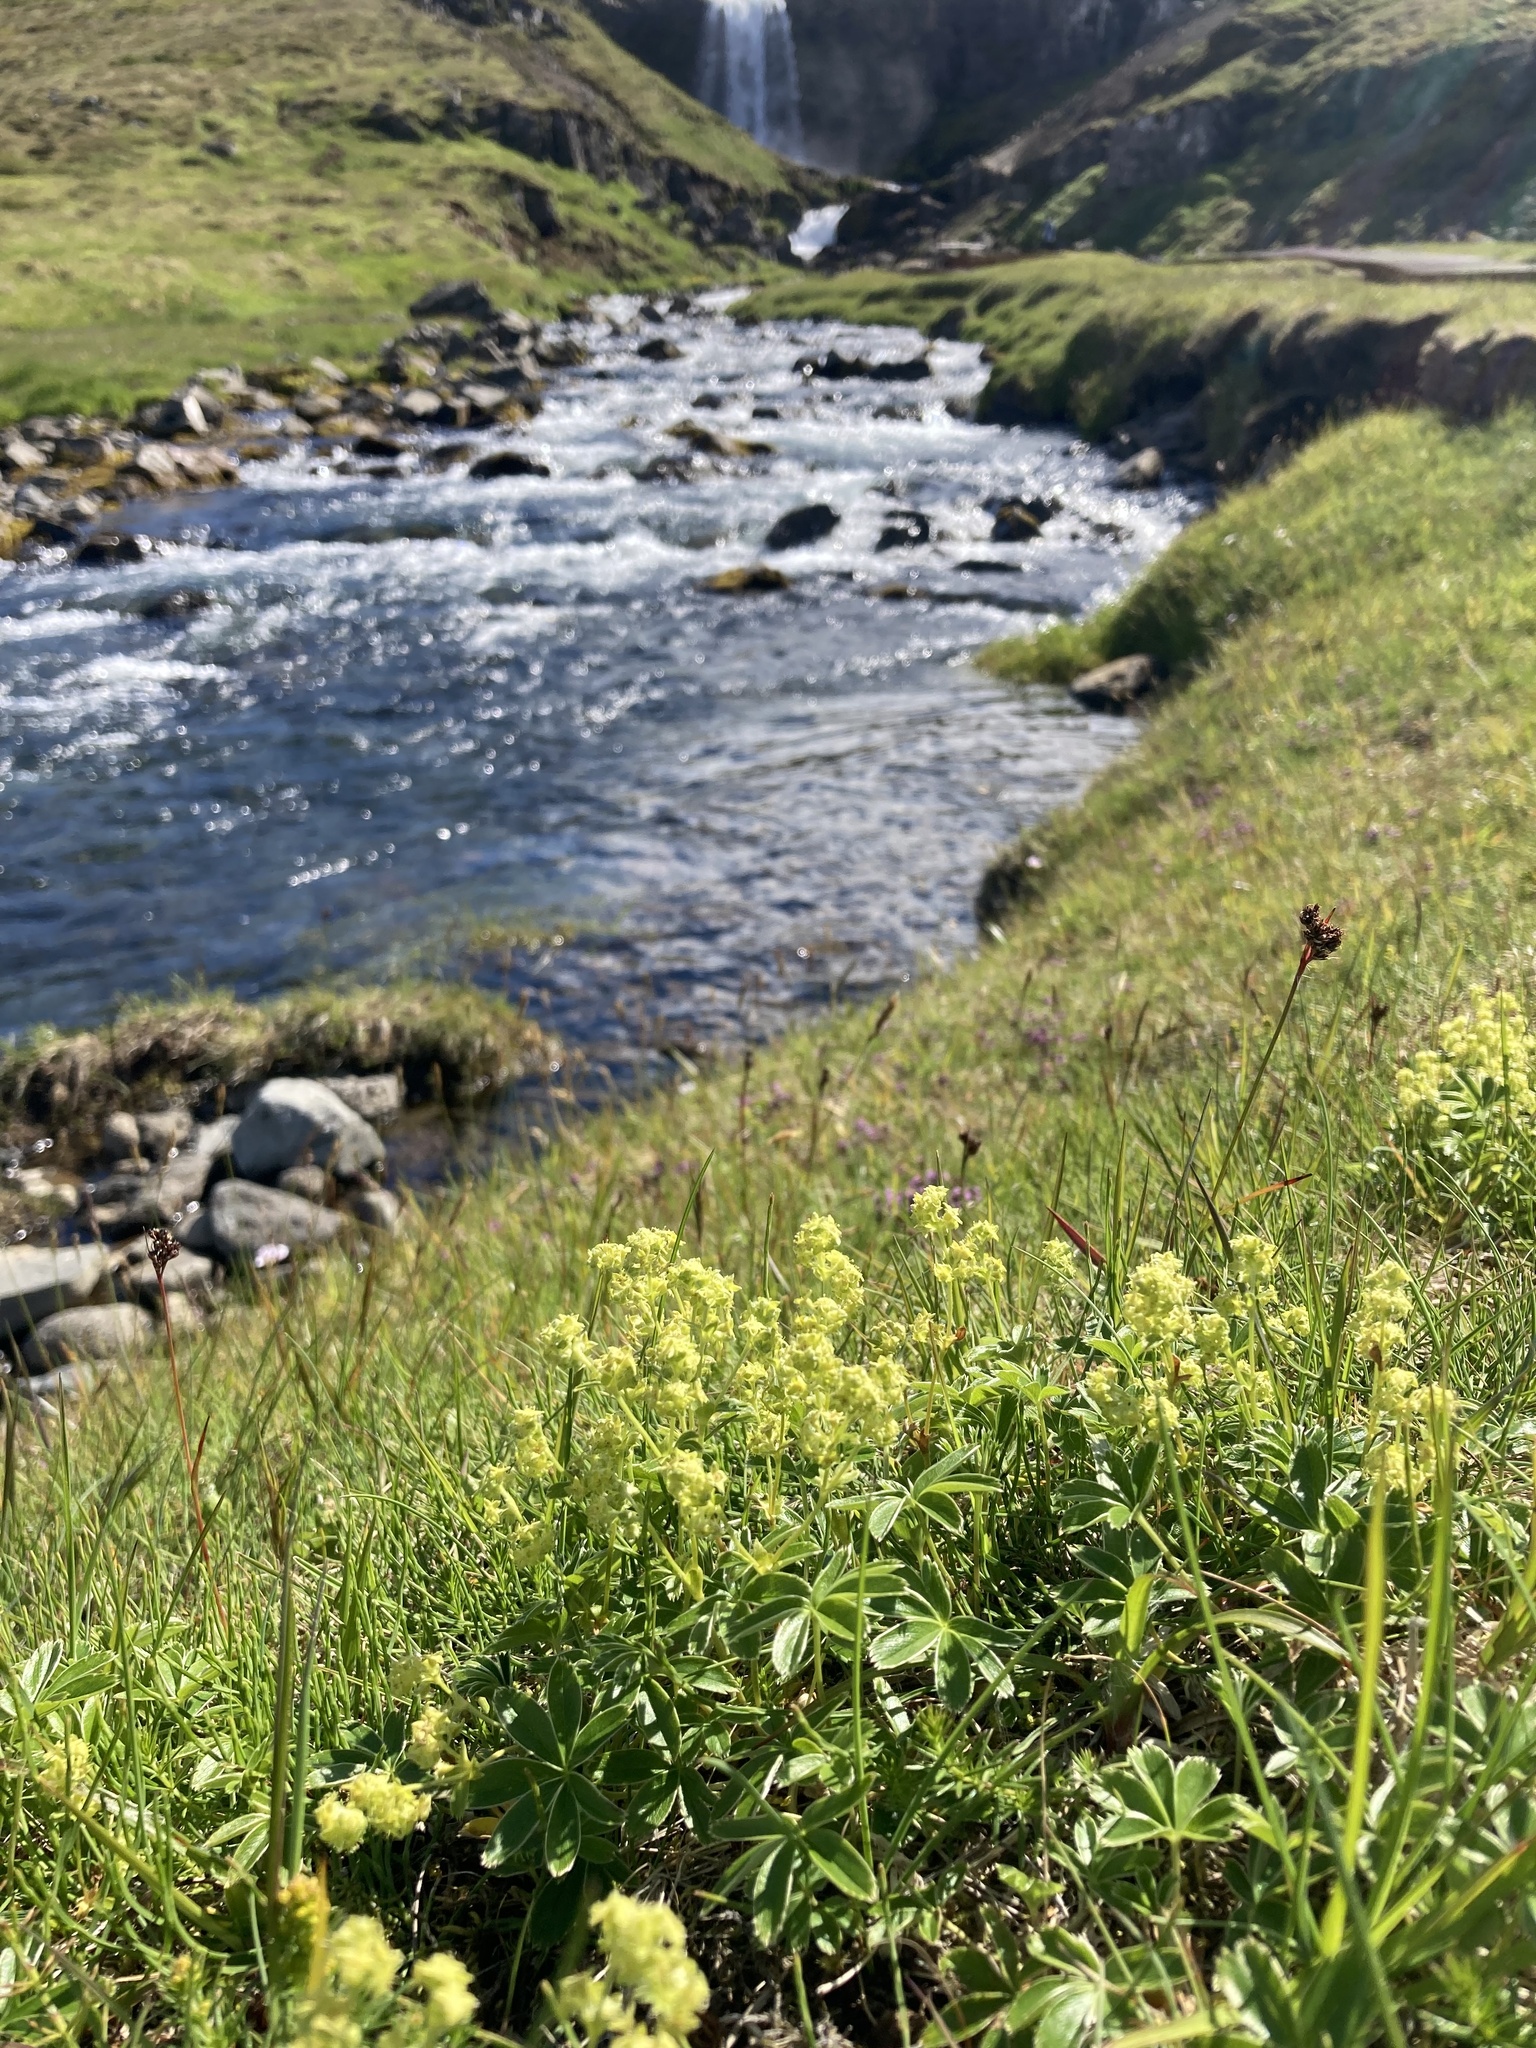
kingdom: Plantae
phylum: Tracheophyta
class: Magnoliopsida
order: Rosales
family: Rosaceae
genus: Alchemilla
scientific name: Alchemilla alpina
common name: Alpine lady's-mantle
